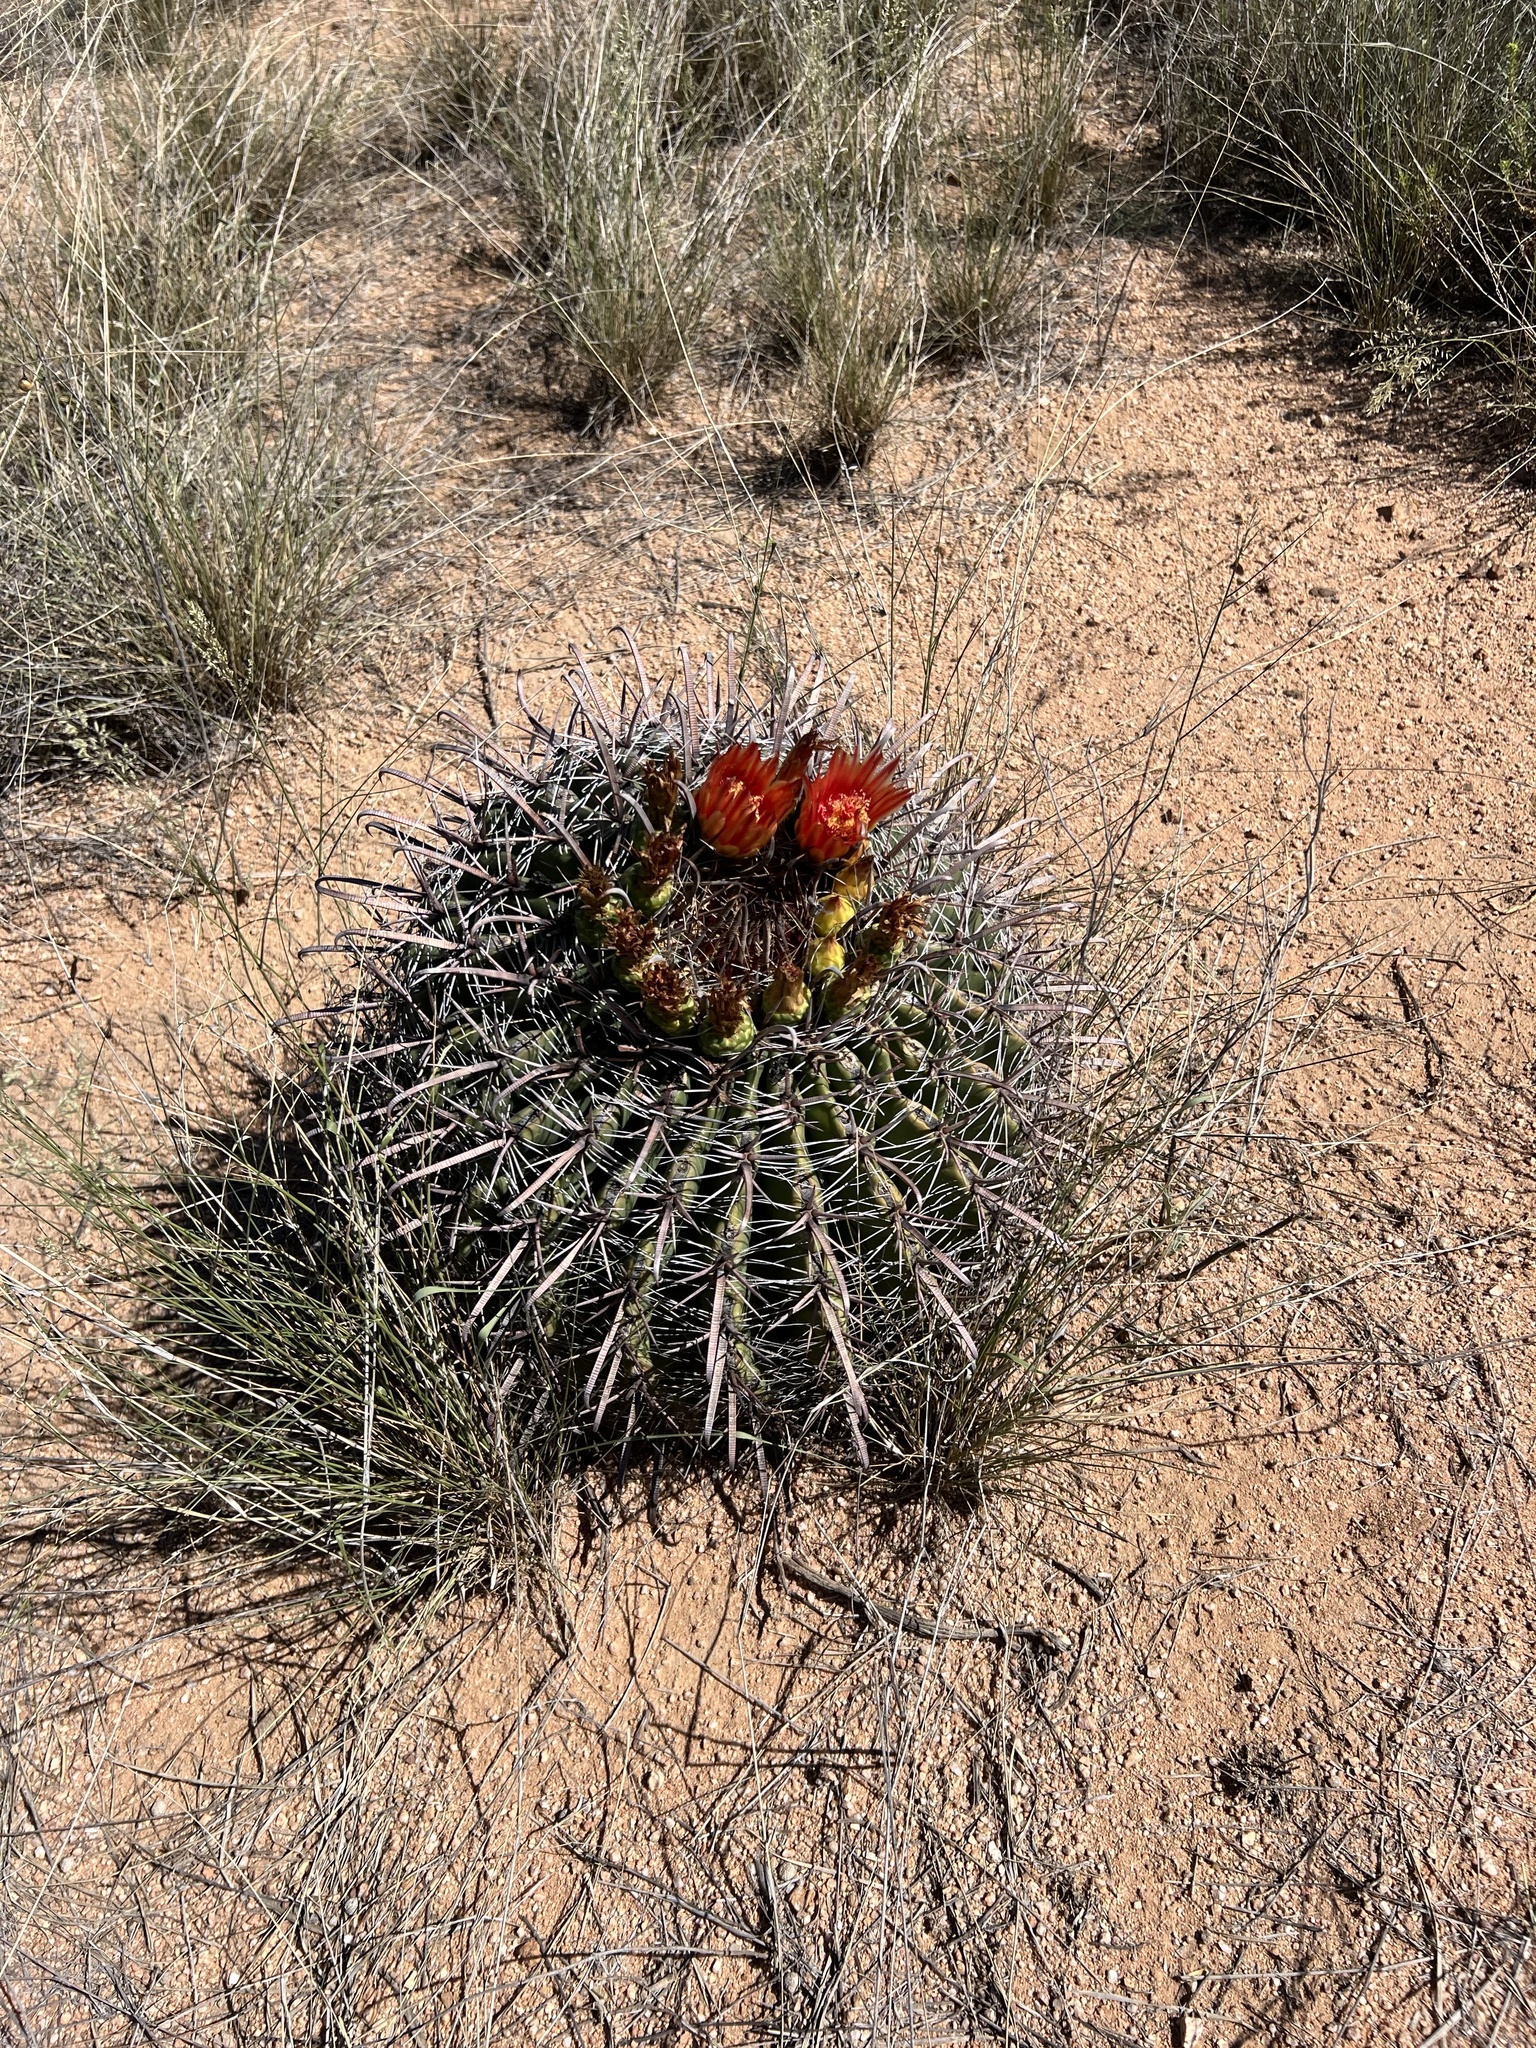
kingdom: Plantae
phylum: Tracheophyta
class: Magnoliopsida
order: Caryophyllales
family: Cactaceae
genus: Ferocactus
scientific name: Ferocactus wislizeni
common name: Candy barrel cactus
